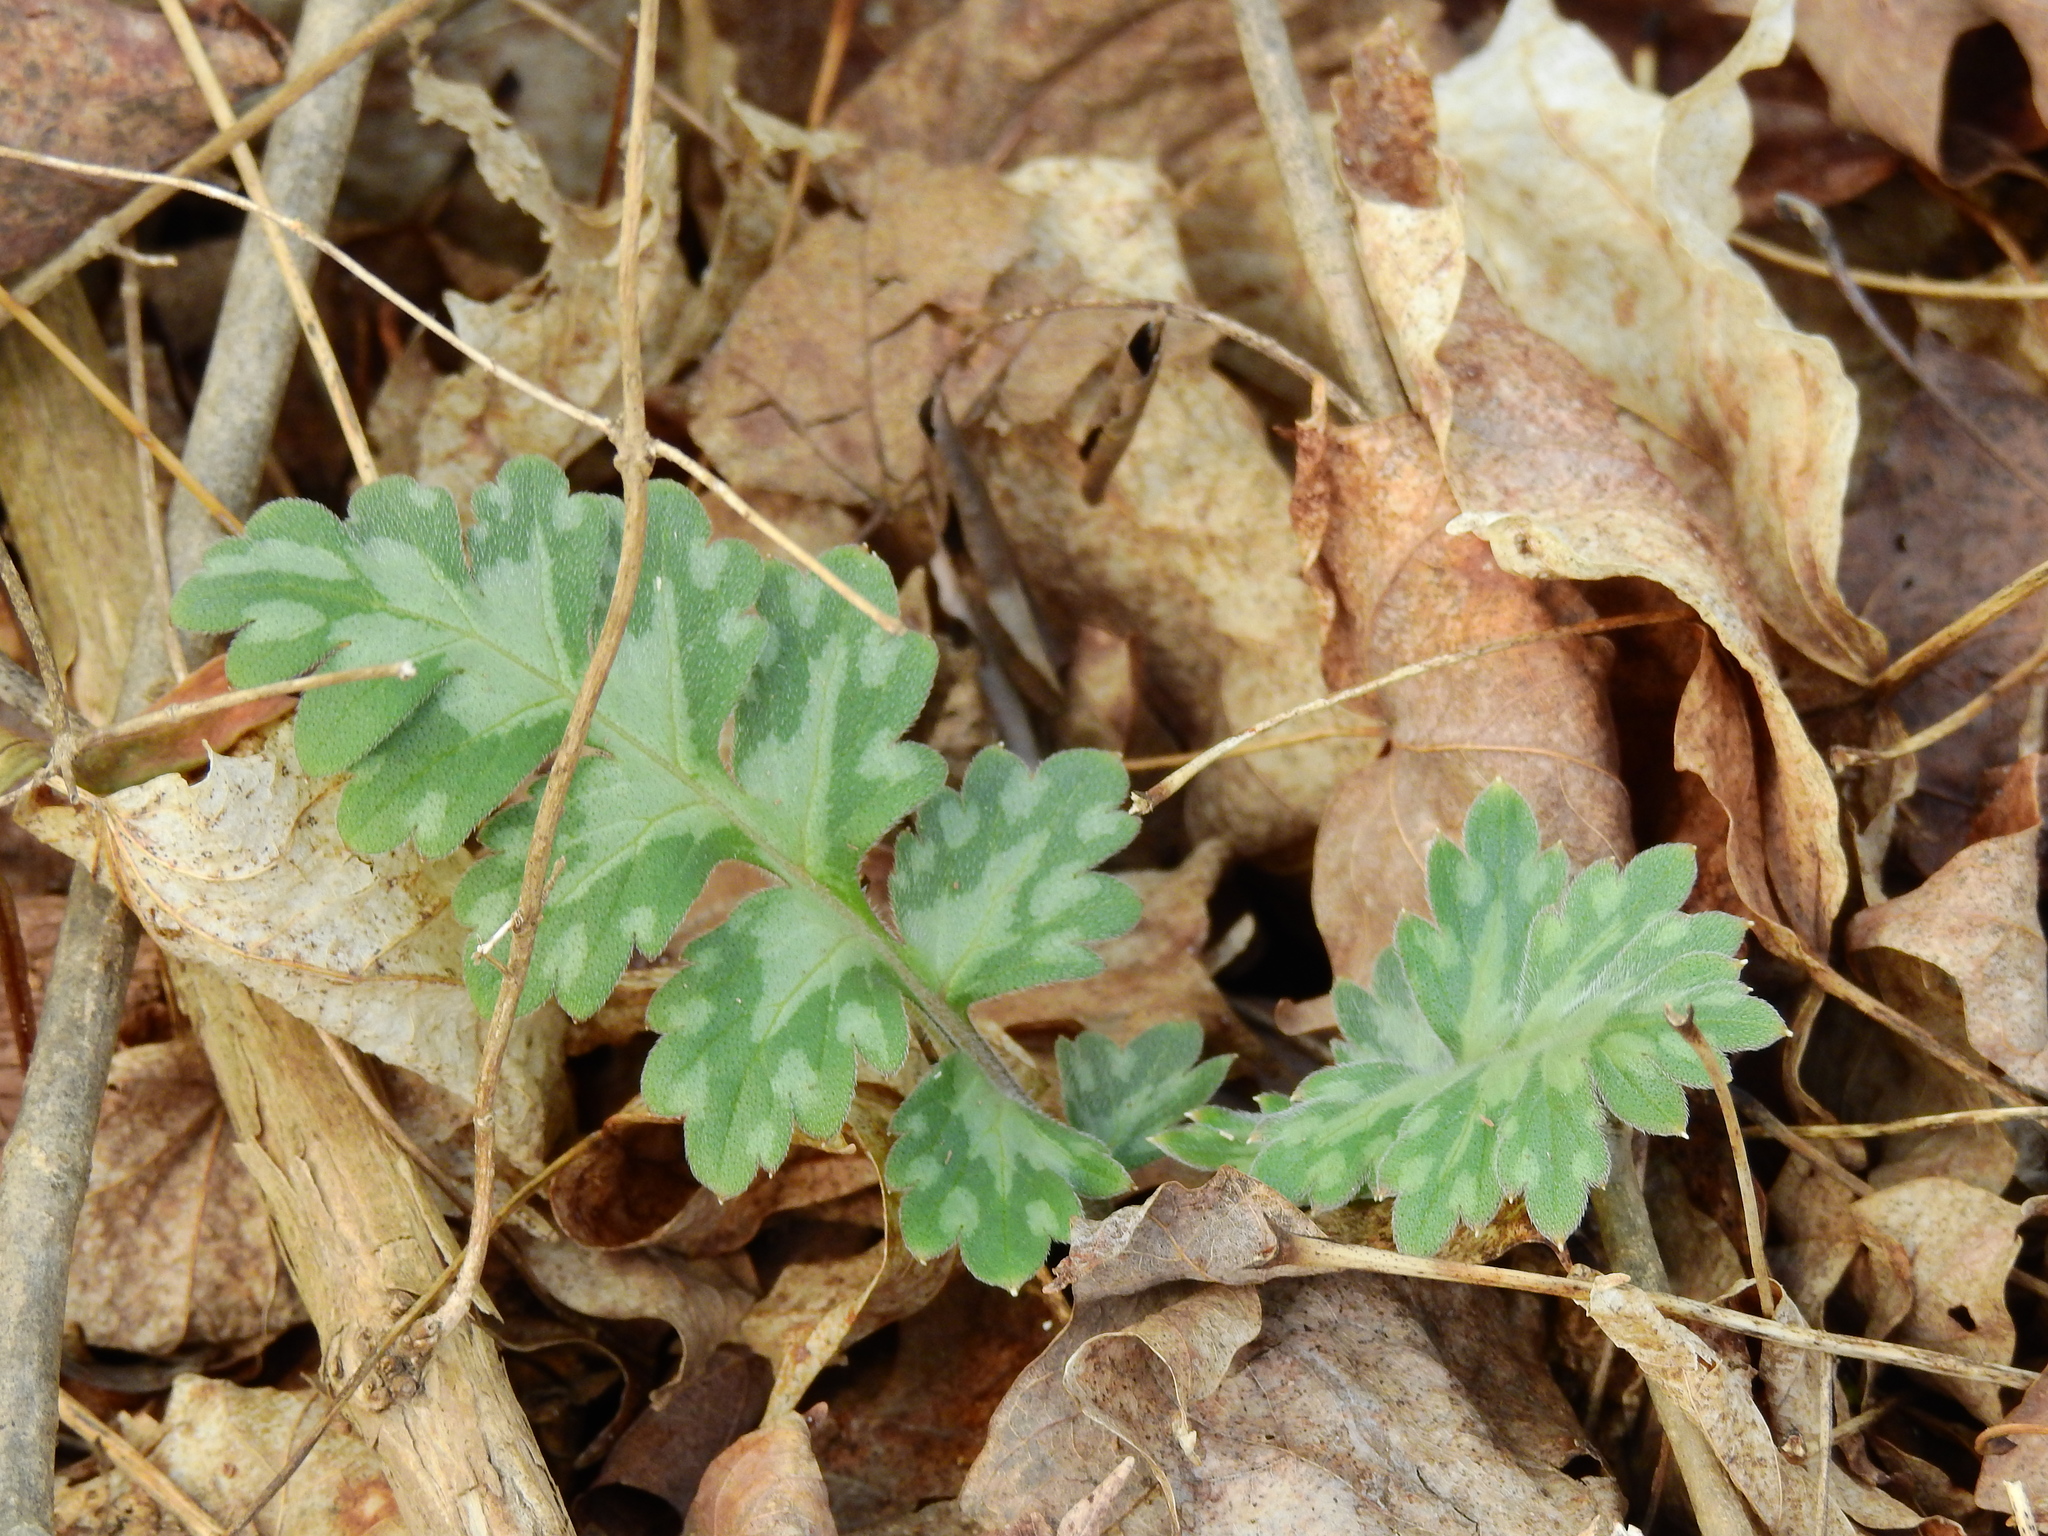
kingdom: Plantae
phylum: Tracheophyta
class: Magnoliopsida
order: Boraginales
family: Hydrophyllaceae
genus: Hydrophyllum
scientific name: Hydrophyllum macrophyllum
